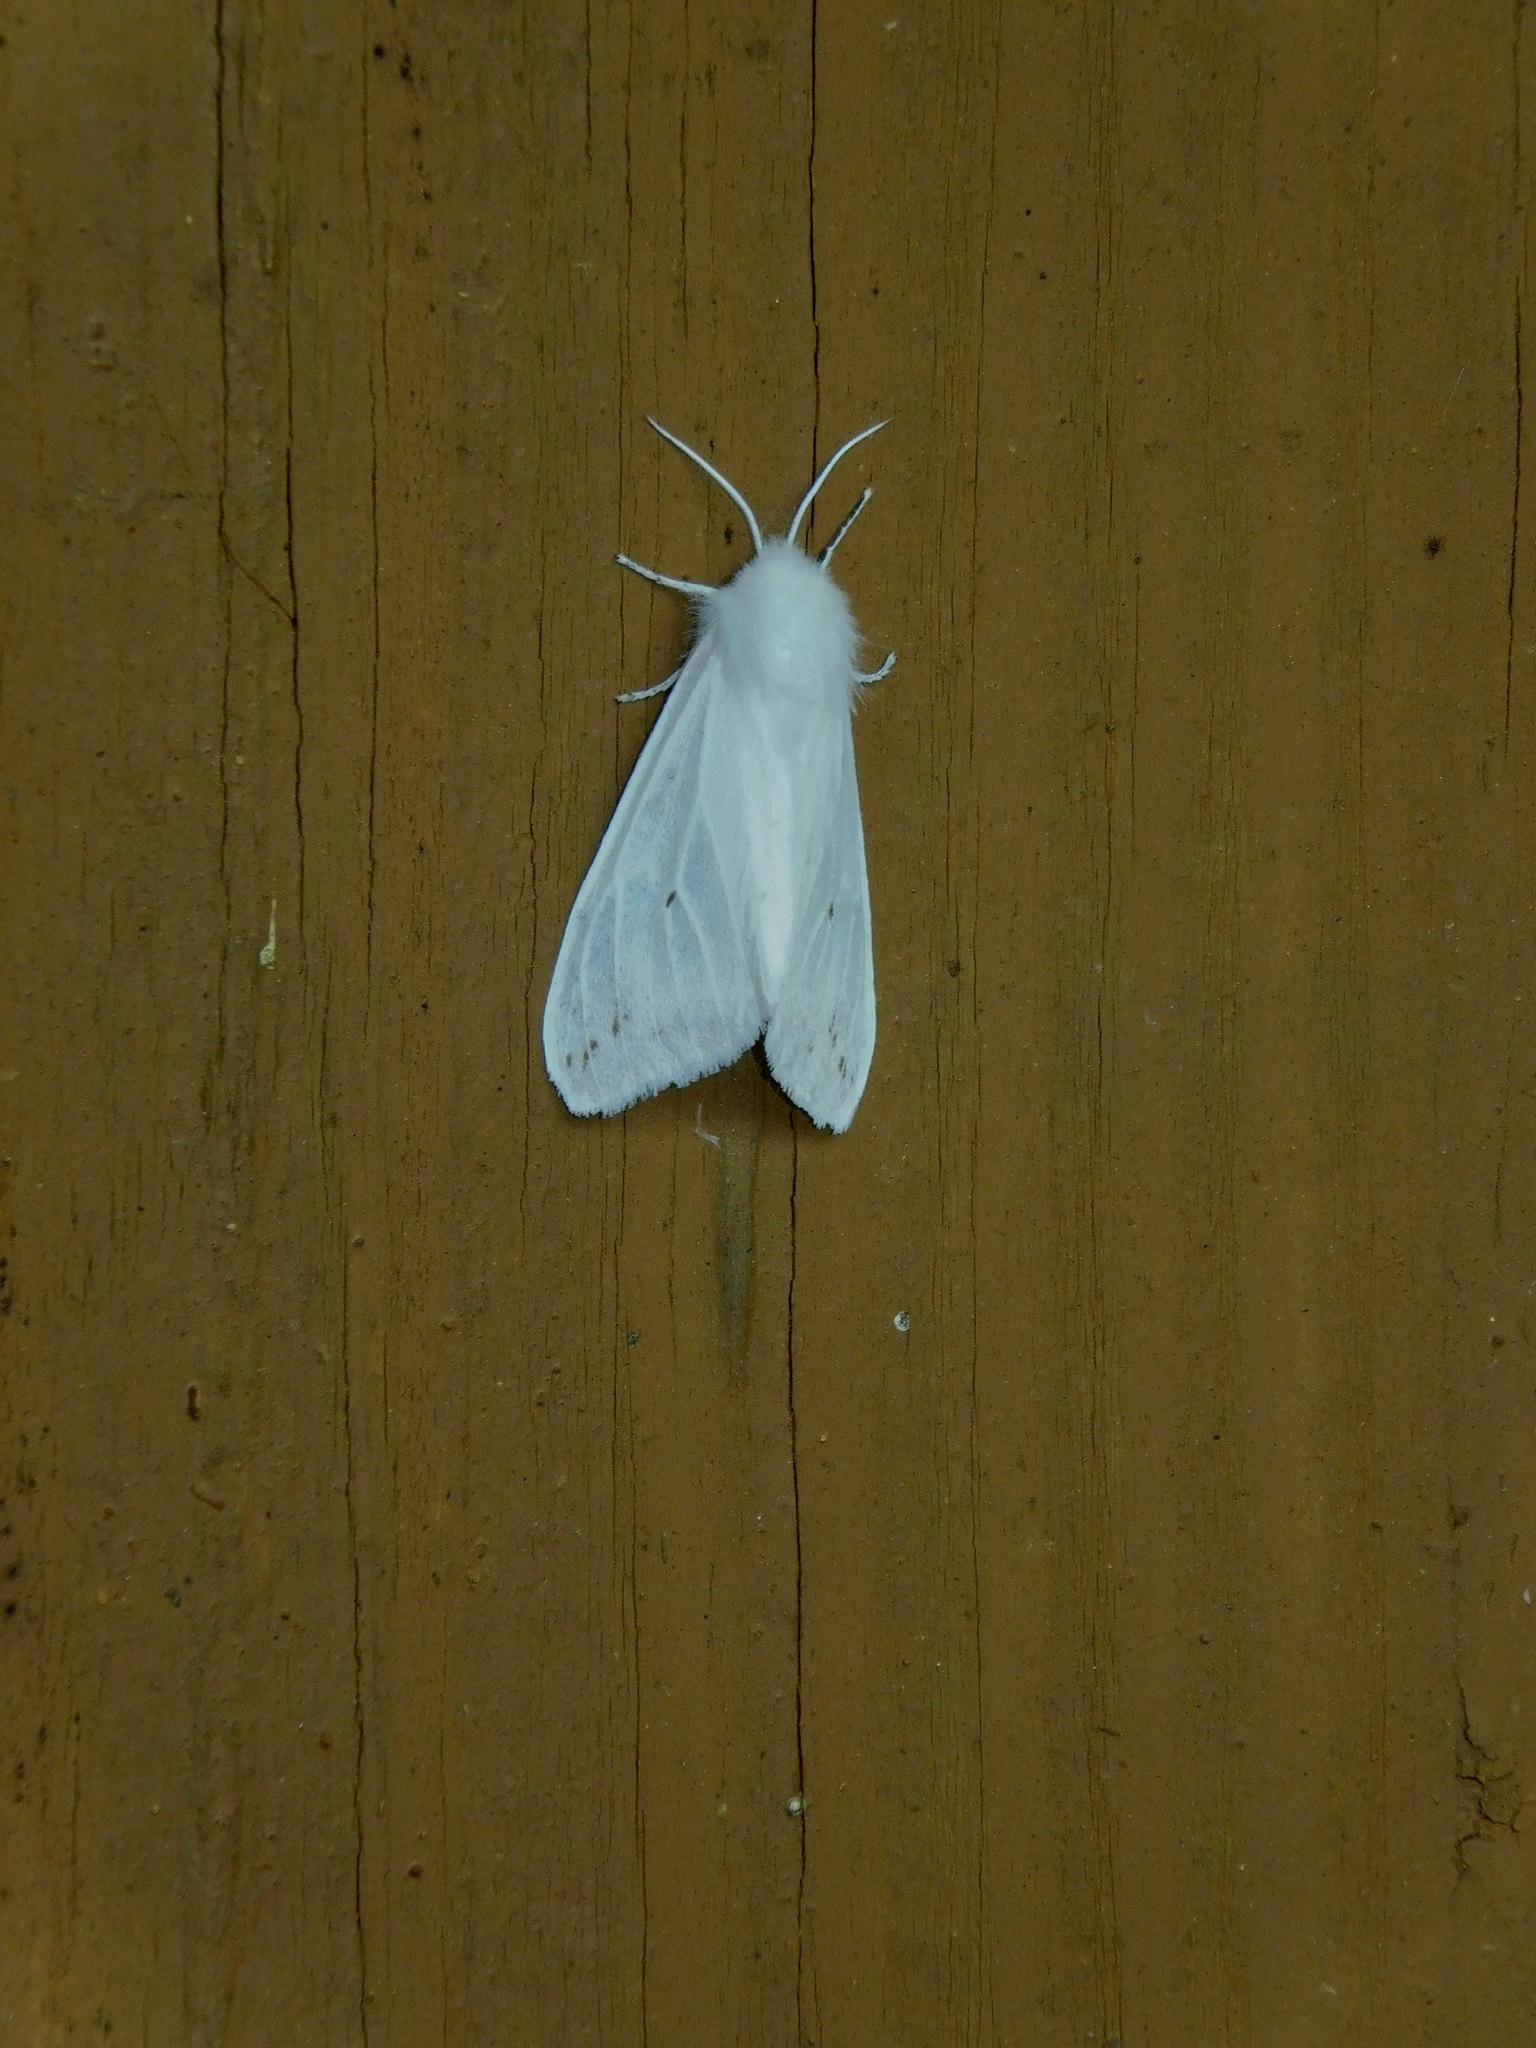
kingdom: Animalia
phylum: Arthropoda
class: Insecta
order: Lepidoptera
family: Erebidae
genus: Spilosoma
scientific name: Spilosoma congrua
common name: Agreeable tiger moth
